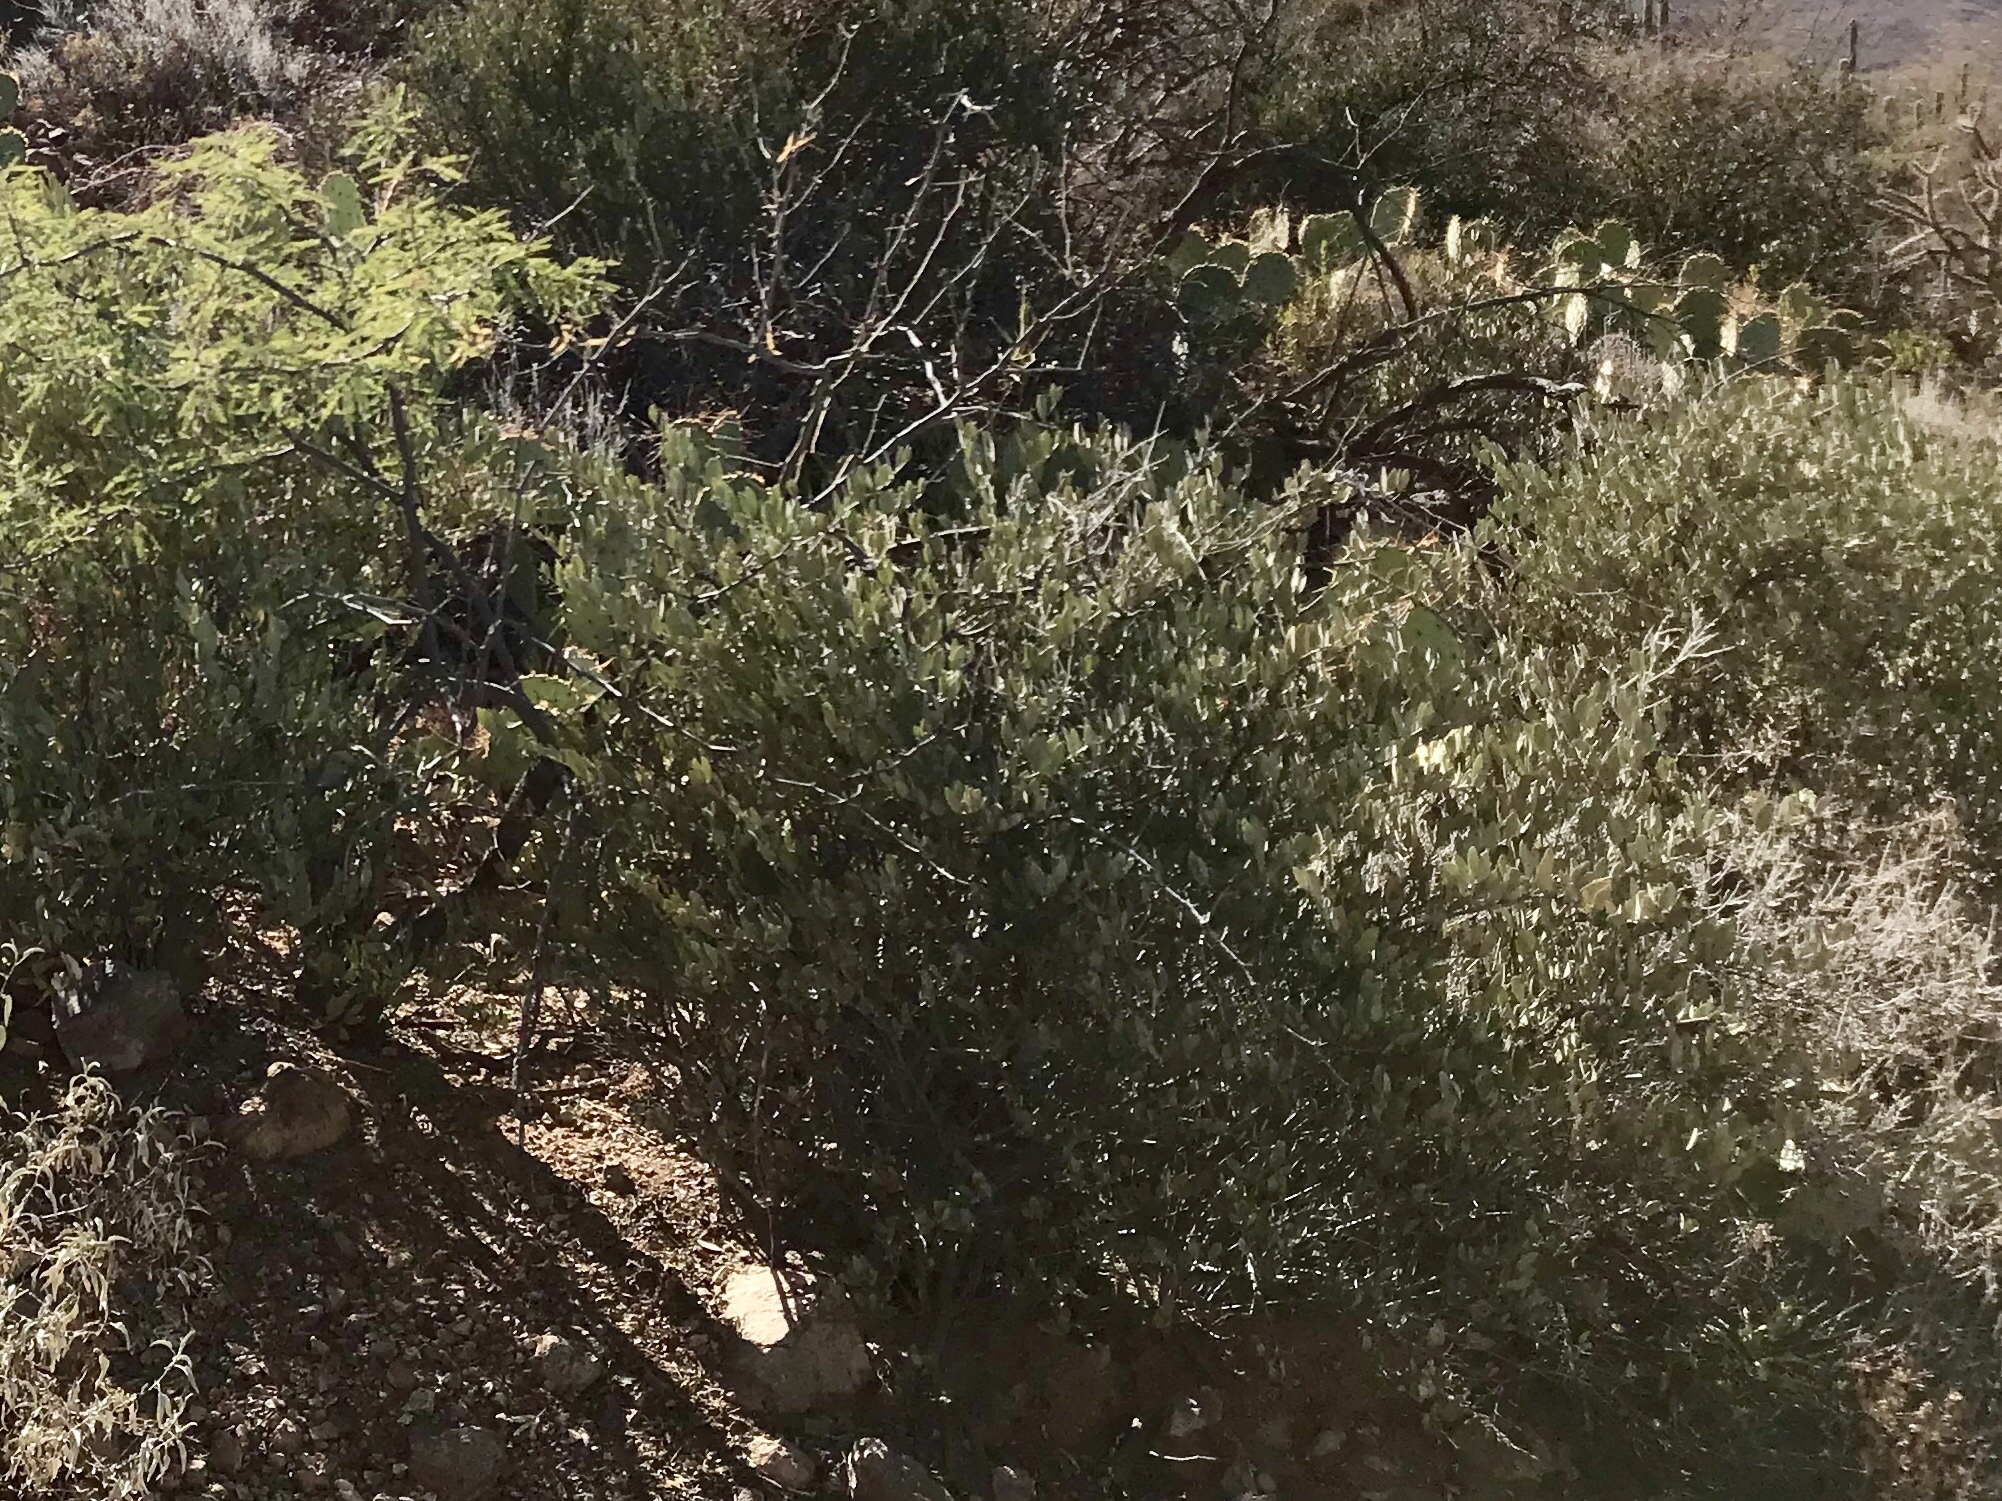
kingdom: Plantae
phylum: Tracheophyta
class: Magnoliopsida
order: Caryophyllales
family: Simmondsiaceae
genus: Simmondsia
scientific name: Simmondsia chinensis
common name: Jojoba
